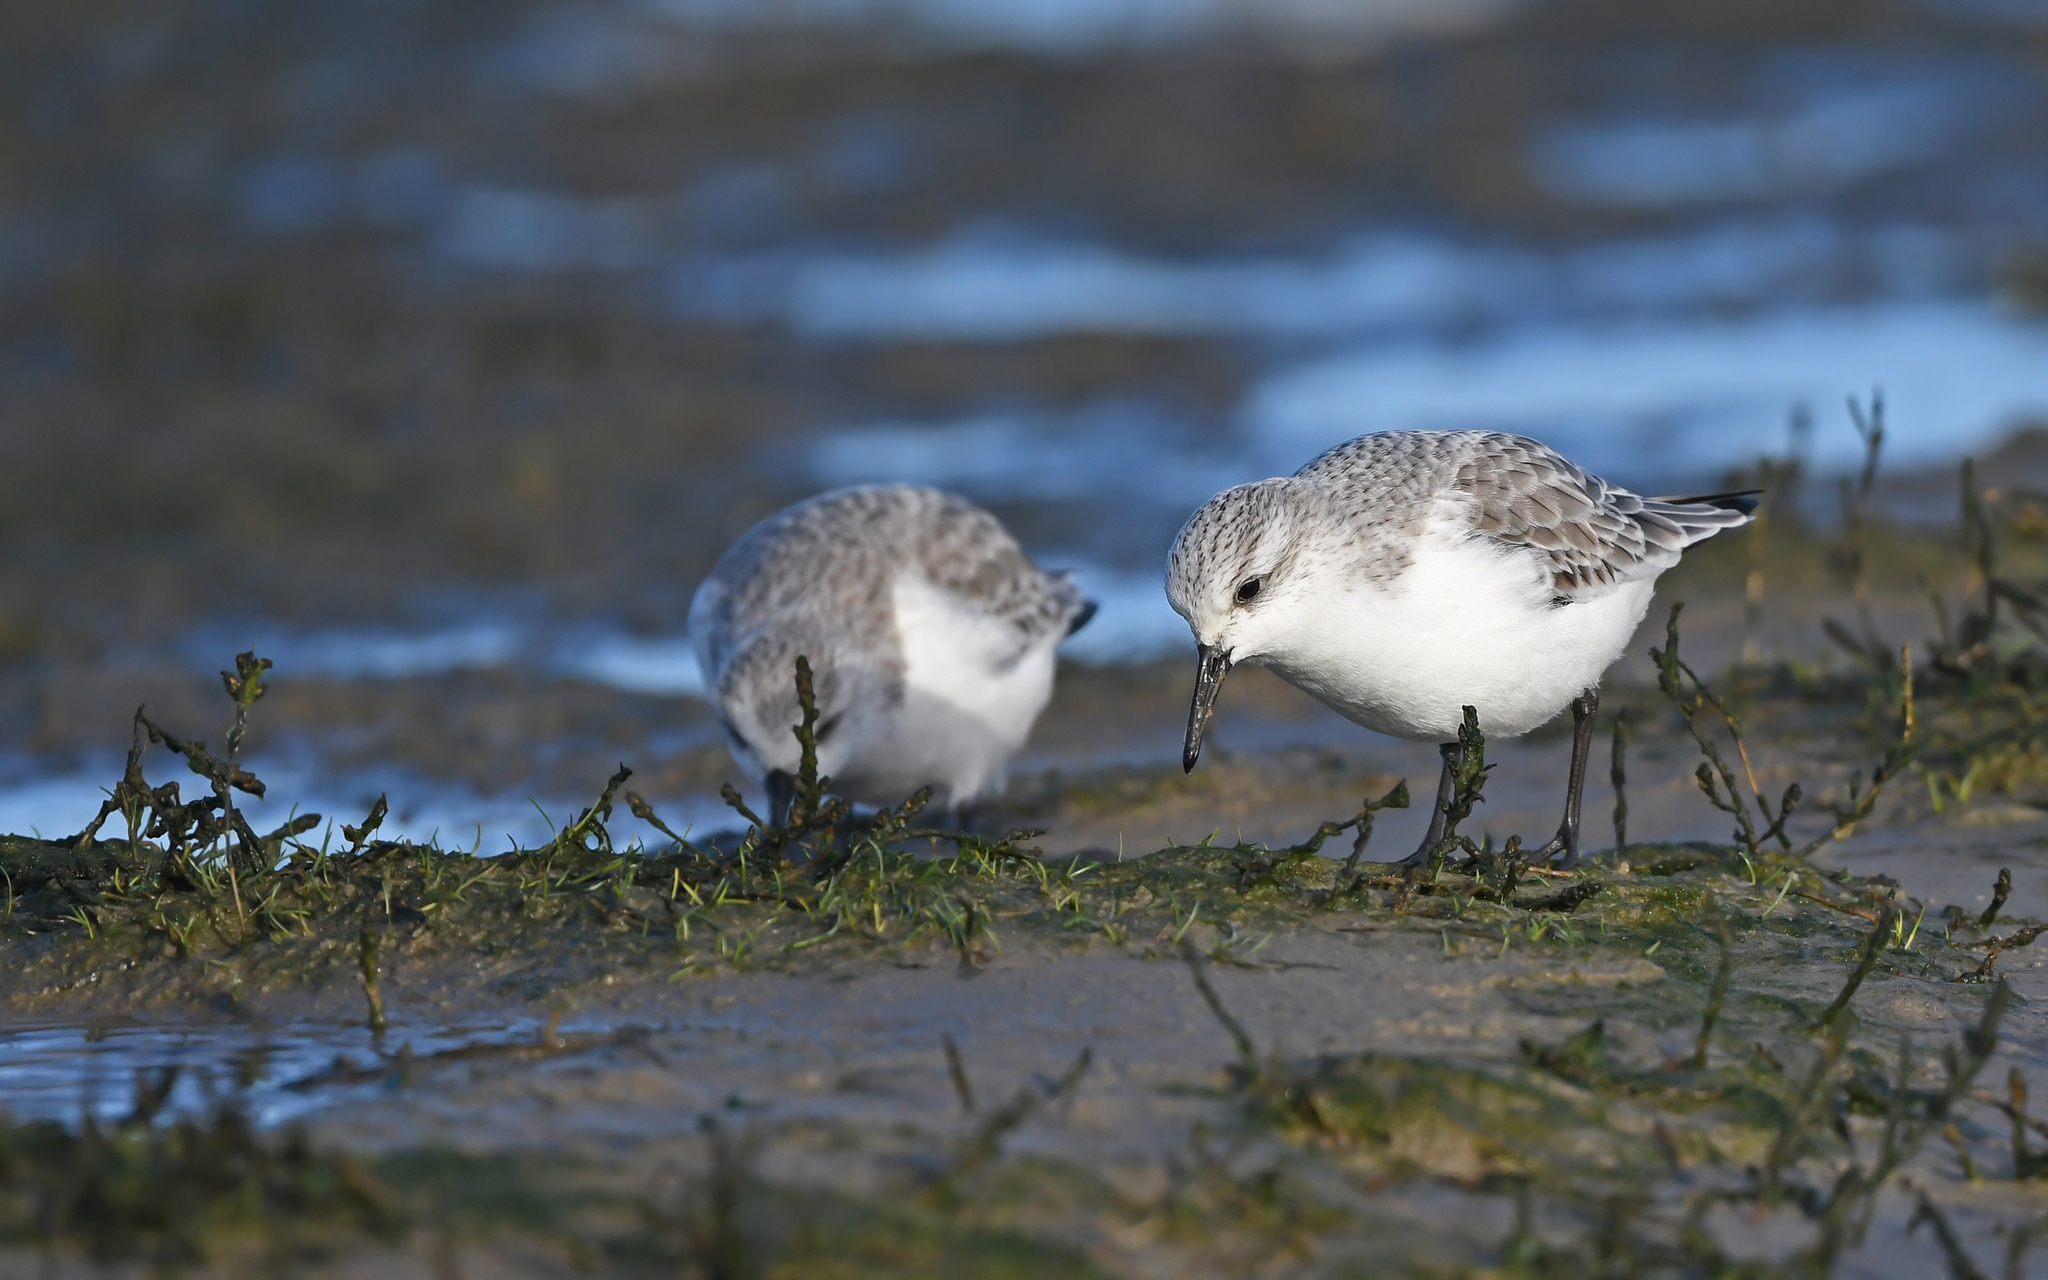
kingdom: Animalia
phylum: Chordata
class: Aves
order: Charadriiformes
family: Scolopacidae
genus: Calidris
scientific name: Calidris alba
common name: Sanderling
